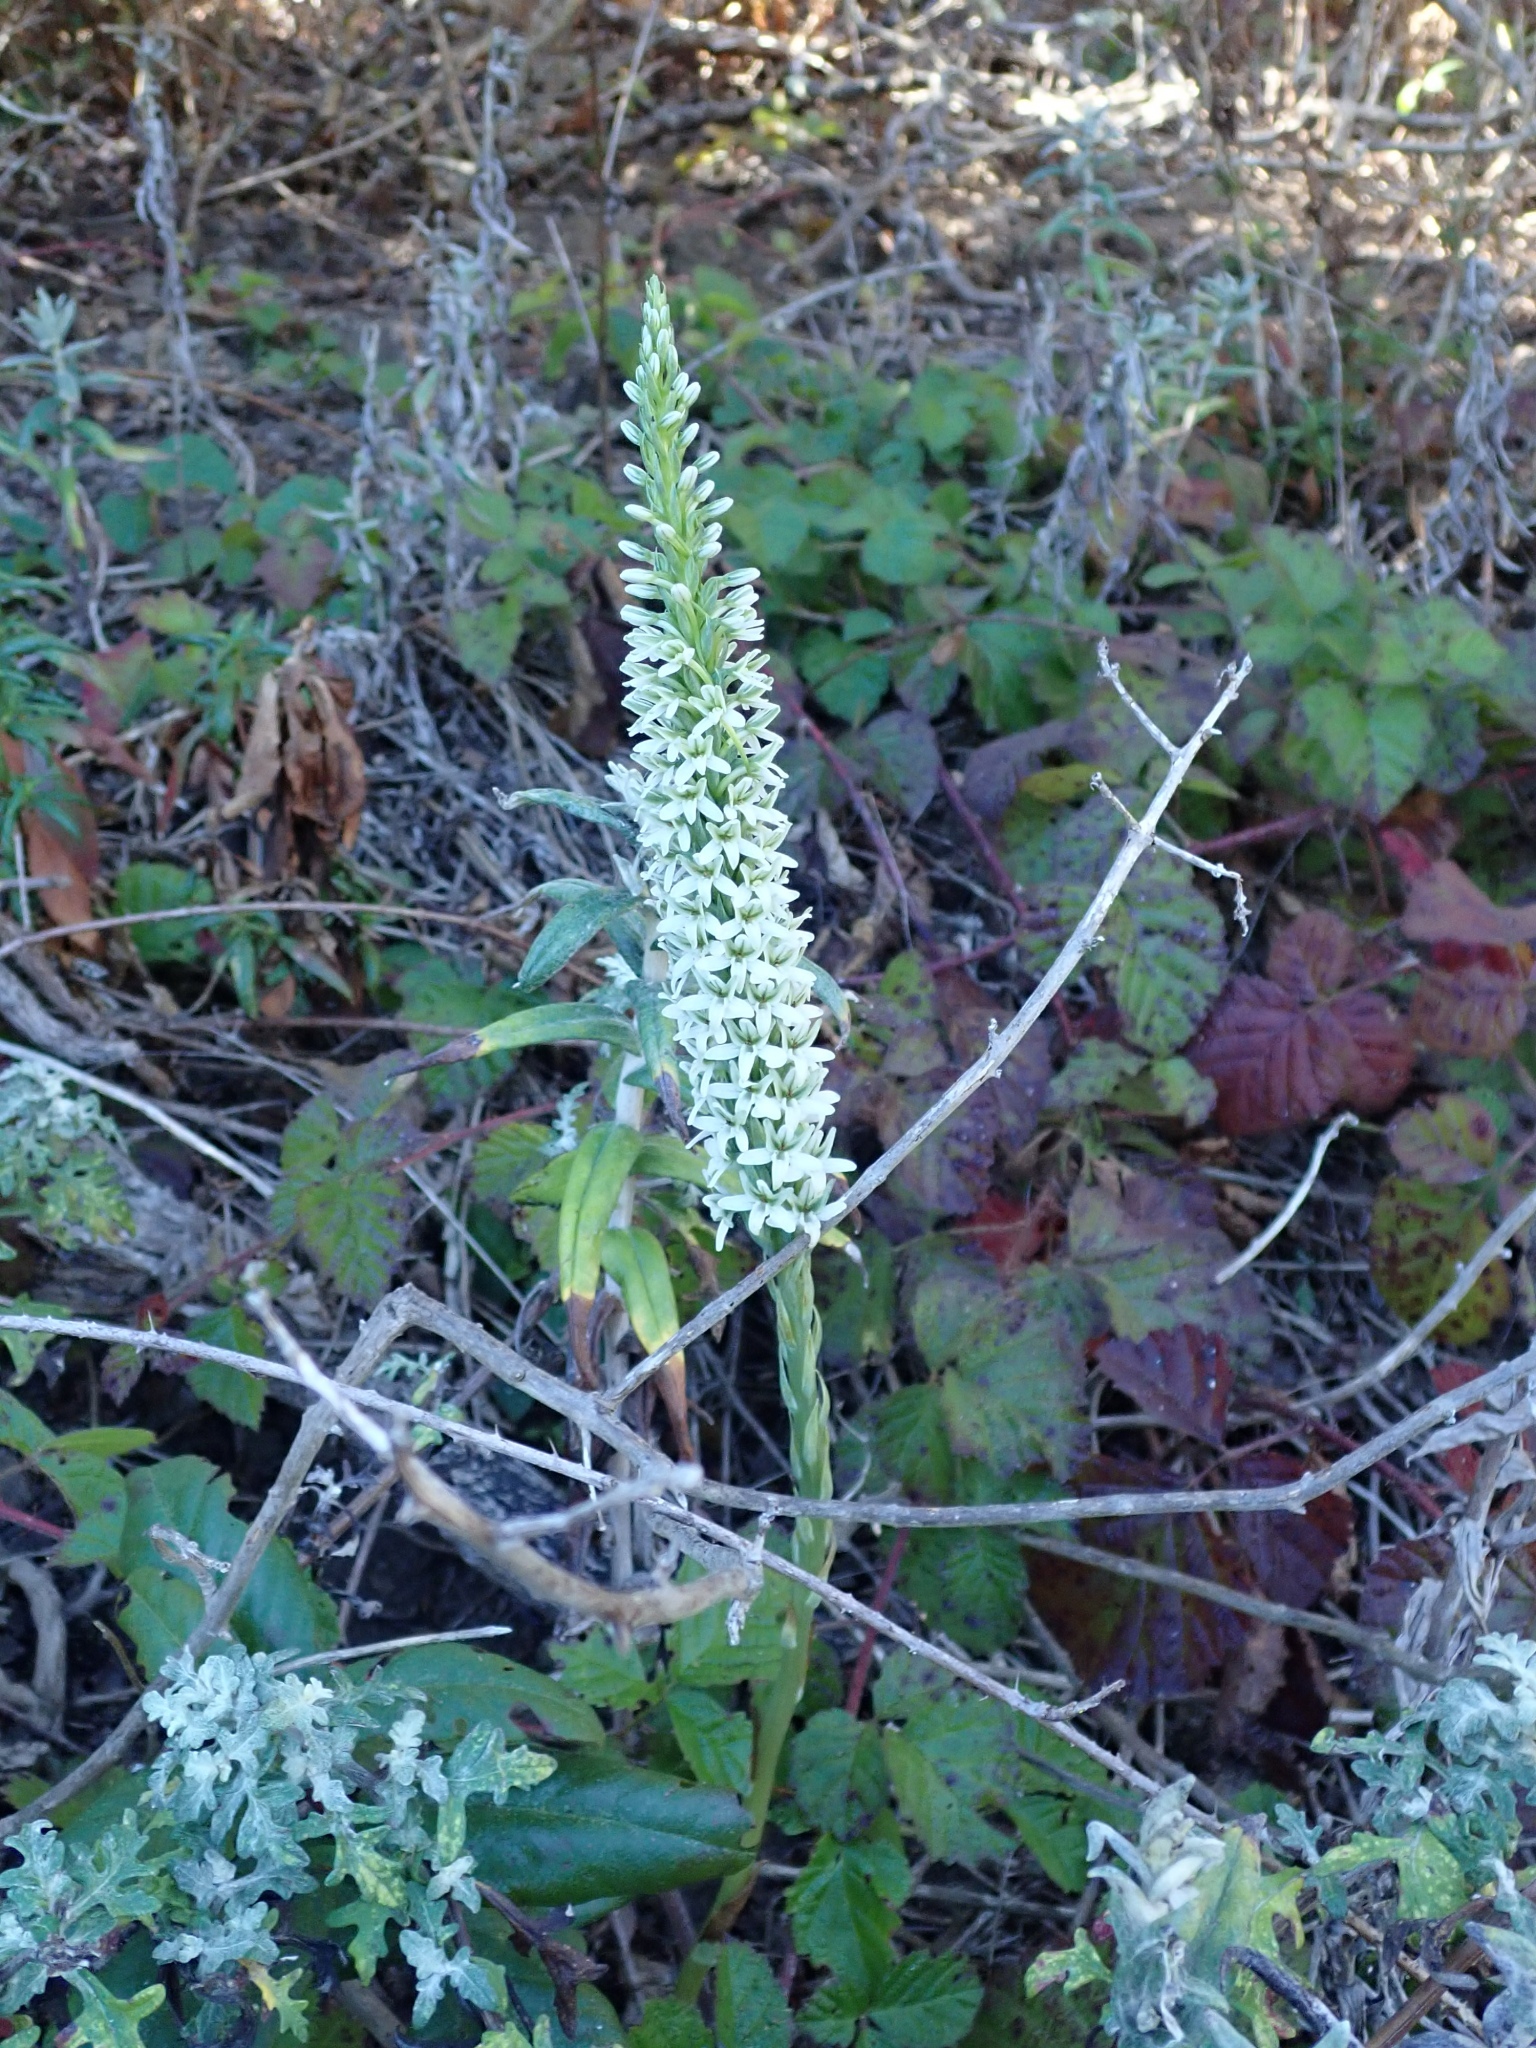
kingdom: Plantae
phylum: Tracheophyta
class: Liliopsida
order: Asparagales
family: Orchidaceae
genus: Platanthera
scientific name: Platanthera elegans
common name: Coast piperia
